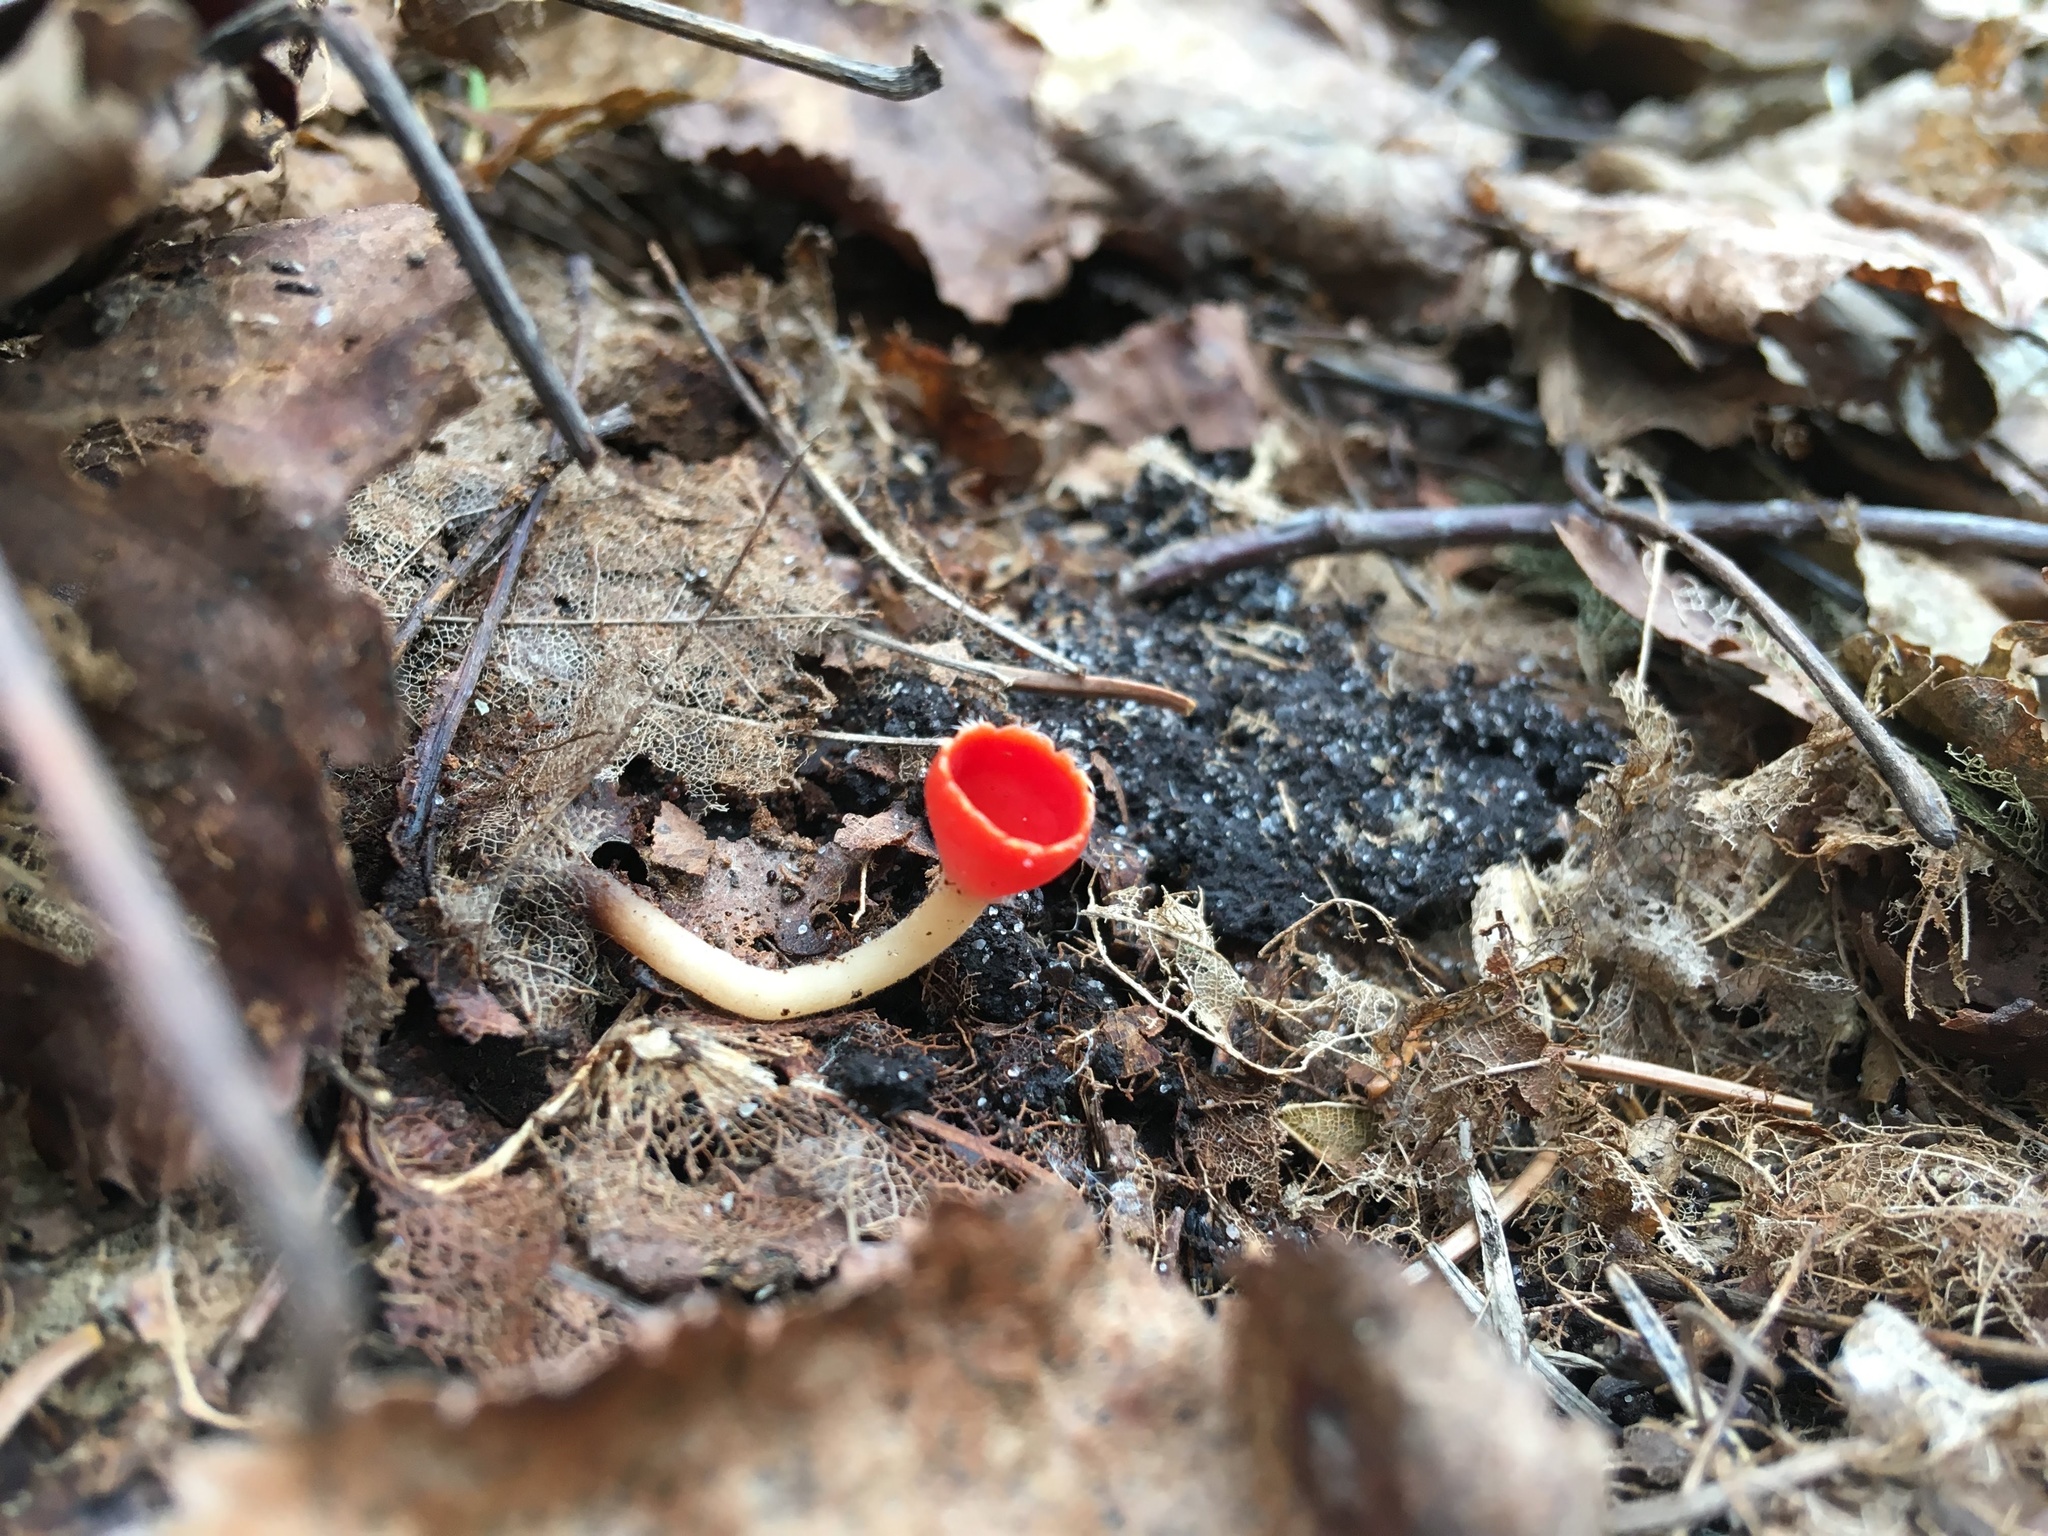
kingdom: Fungi
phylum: Ascomycota
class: Pezizomycetes
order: Pezizales
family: Sarcoscyphaceae
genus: Microstoma
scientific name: Microstoma protractum
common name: Rosy goblet
